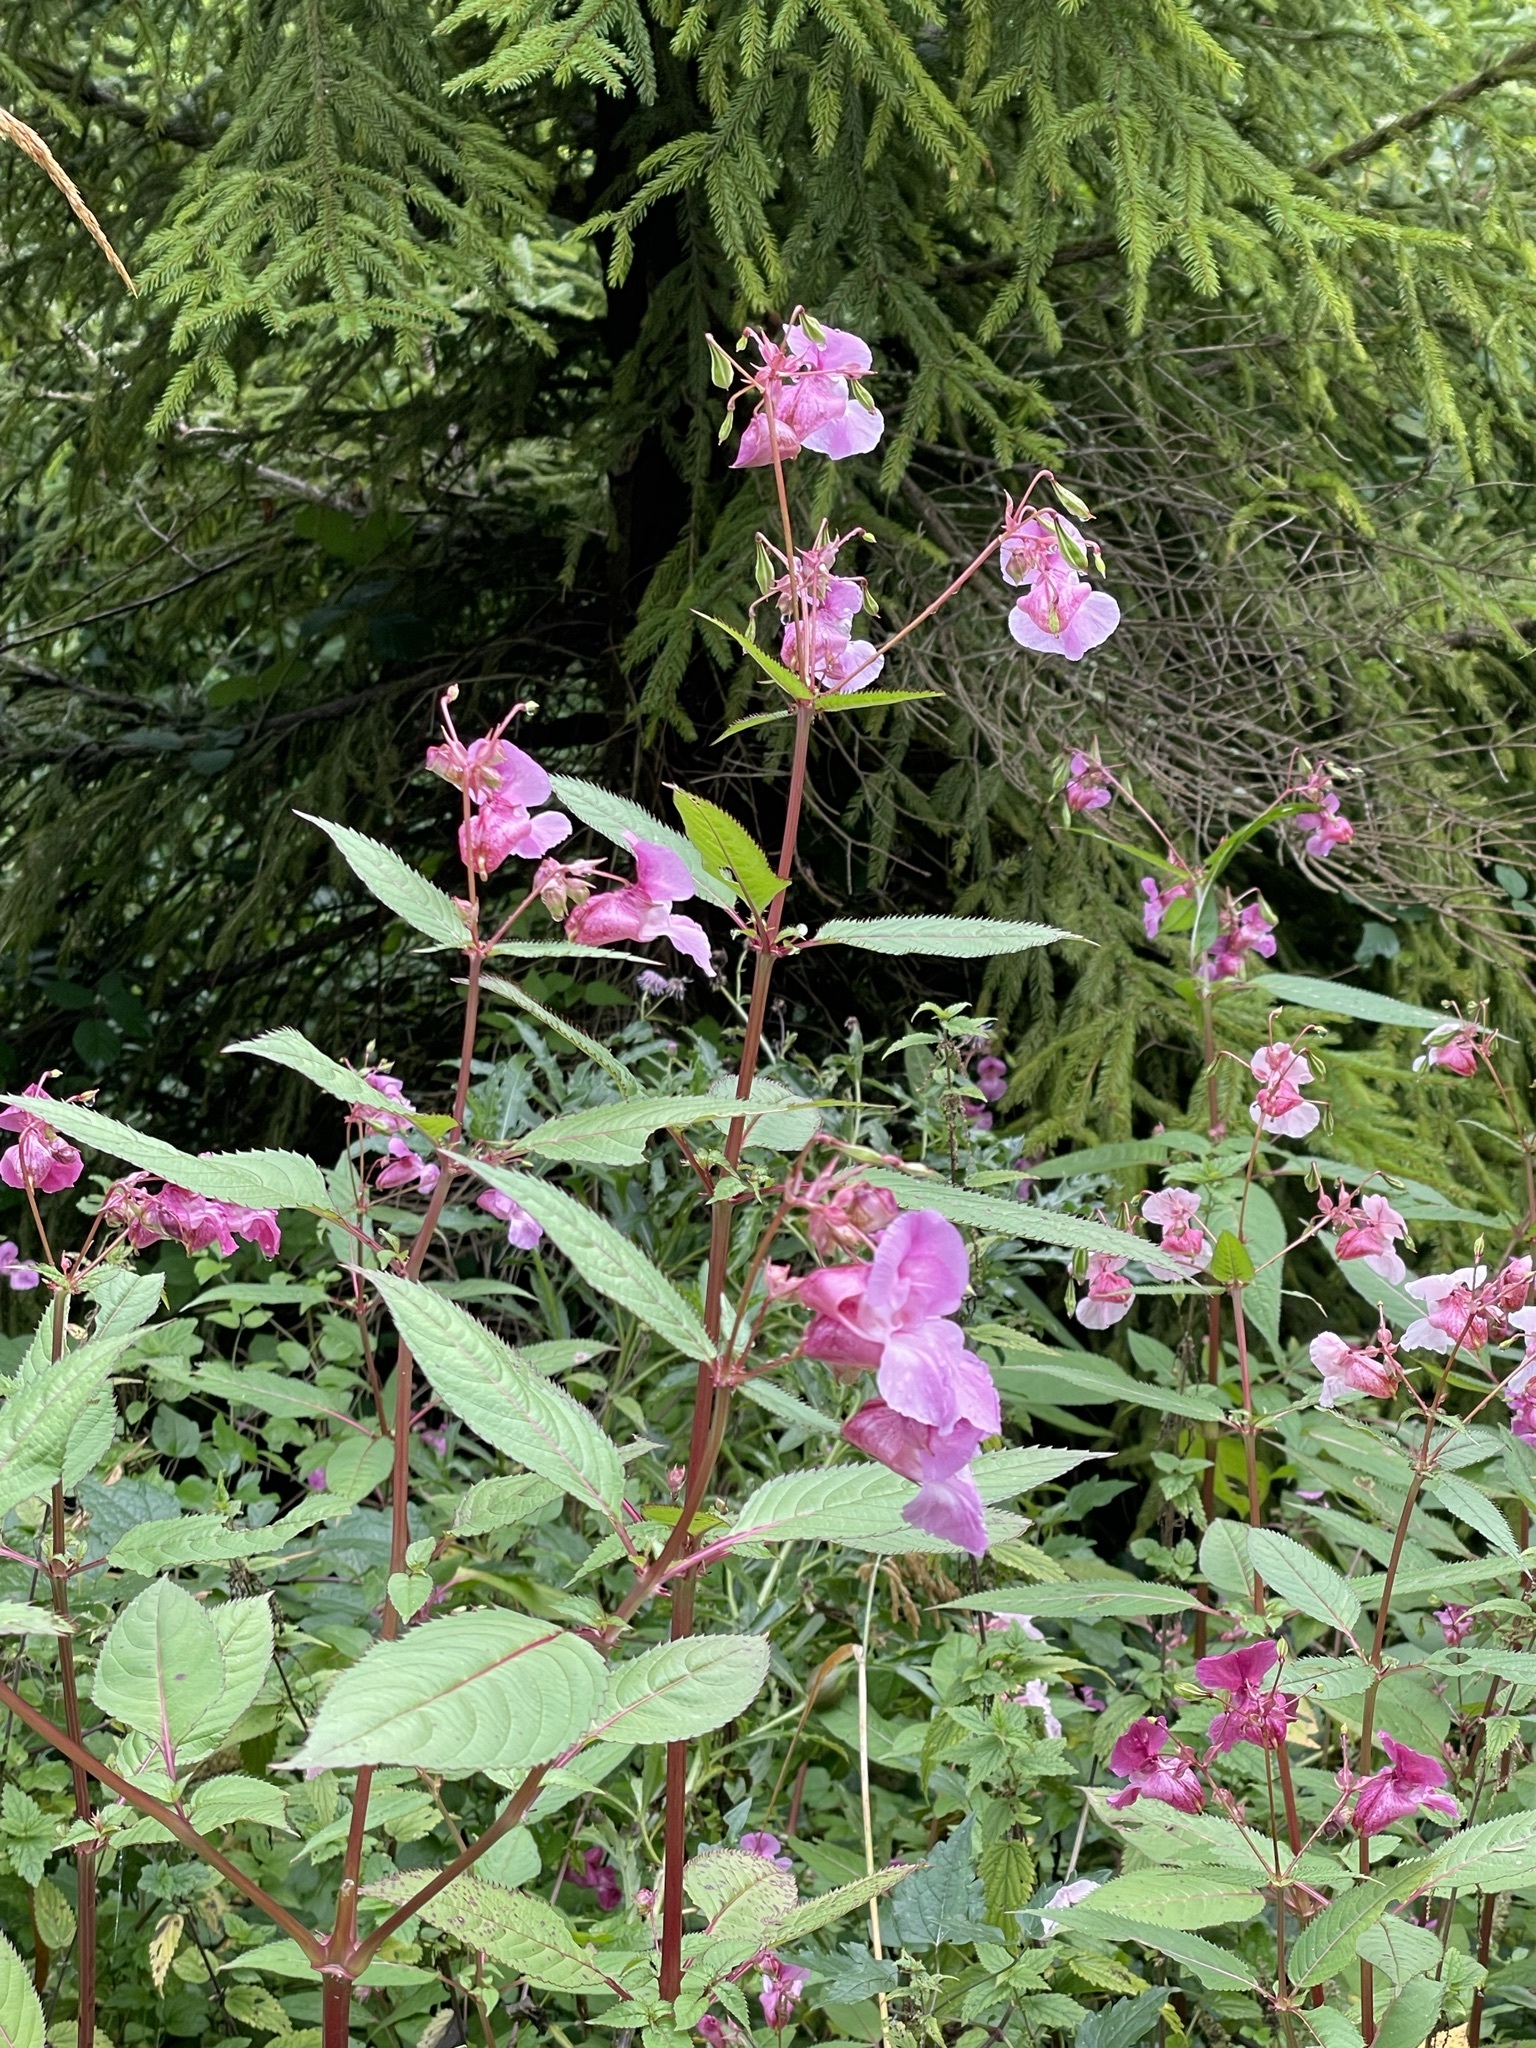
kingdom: Plantae
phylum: Tracheophyta
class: Magnoliopsida
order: Ericales
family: Balsaminaceae
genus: Impatiens
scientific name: Impatiens glandulifera
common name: Himalayan balsam
